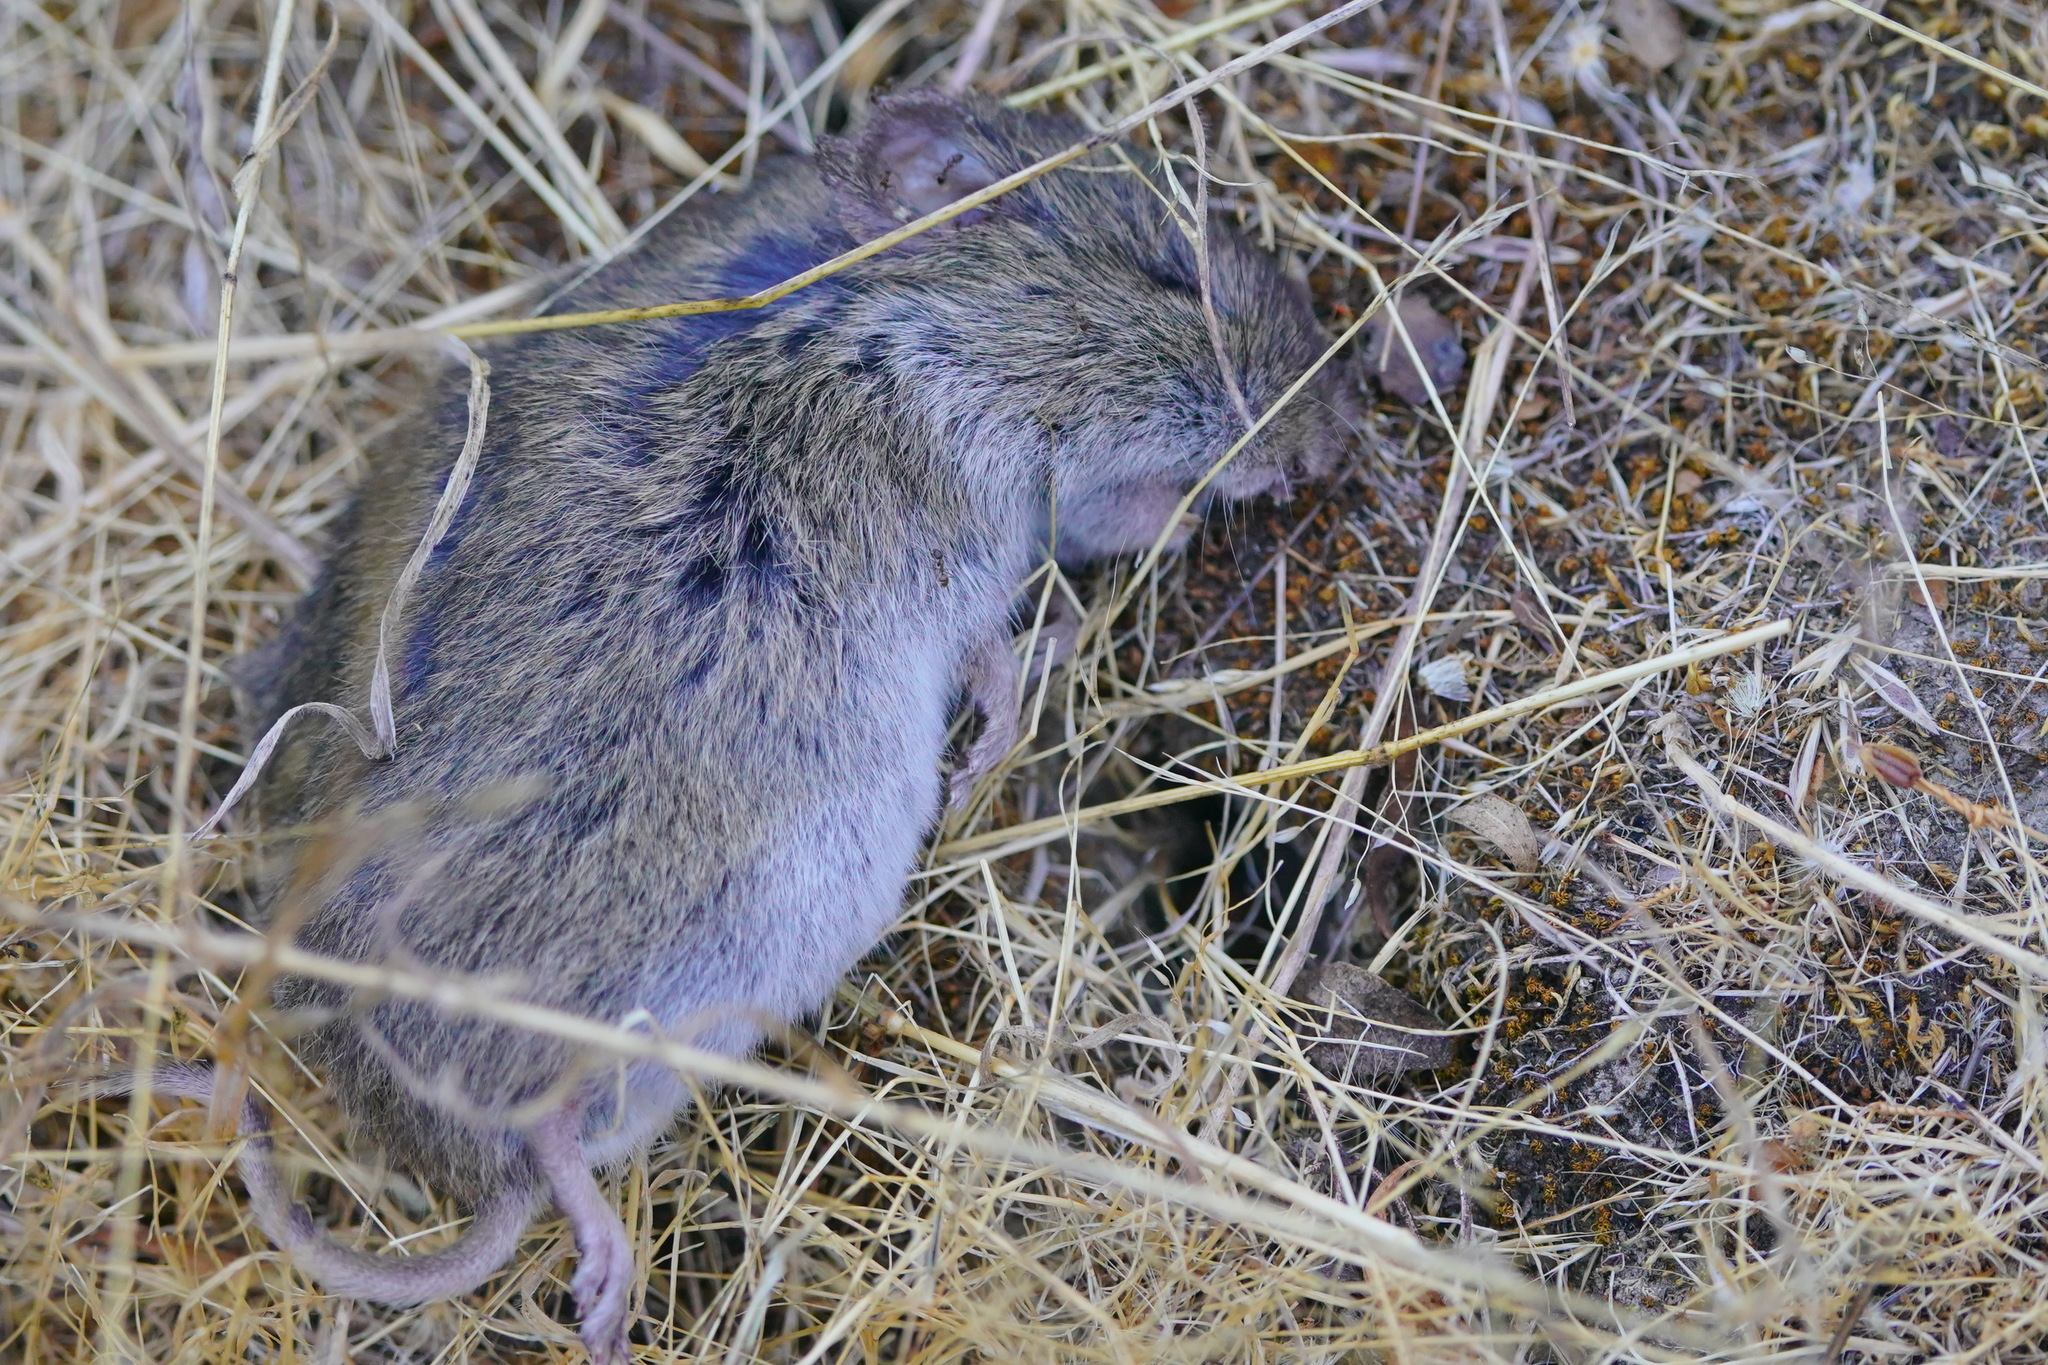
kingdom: Animalia
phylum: Chordata
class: Mammalia
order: Rodentia
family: Cricetidae
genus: Microtus
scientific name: Microtus californicus
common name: California vole
